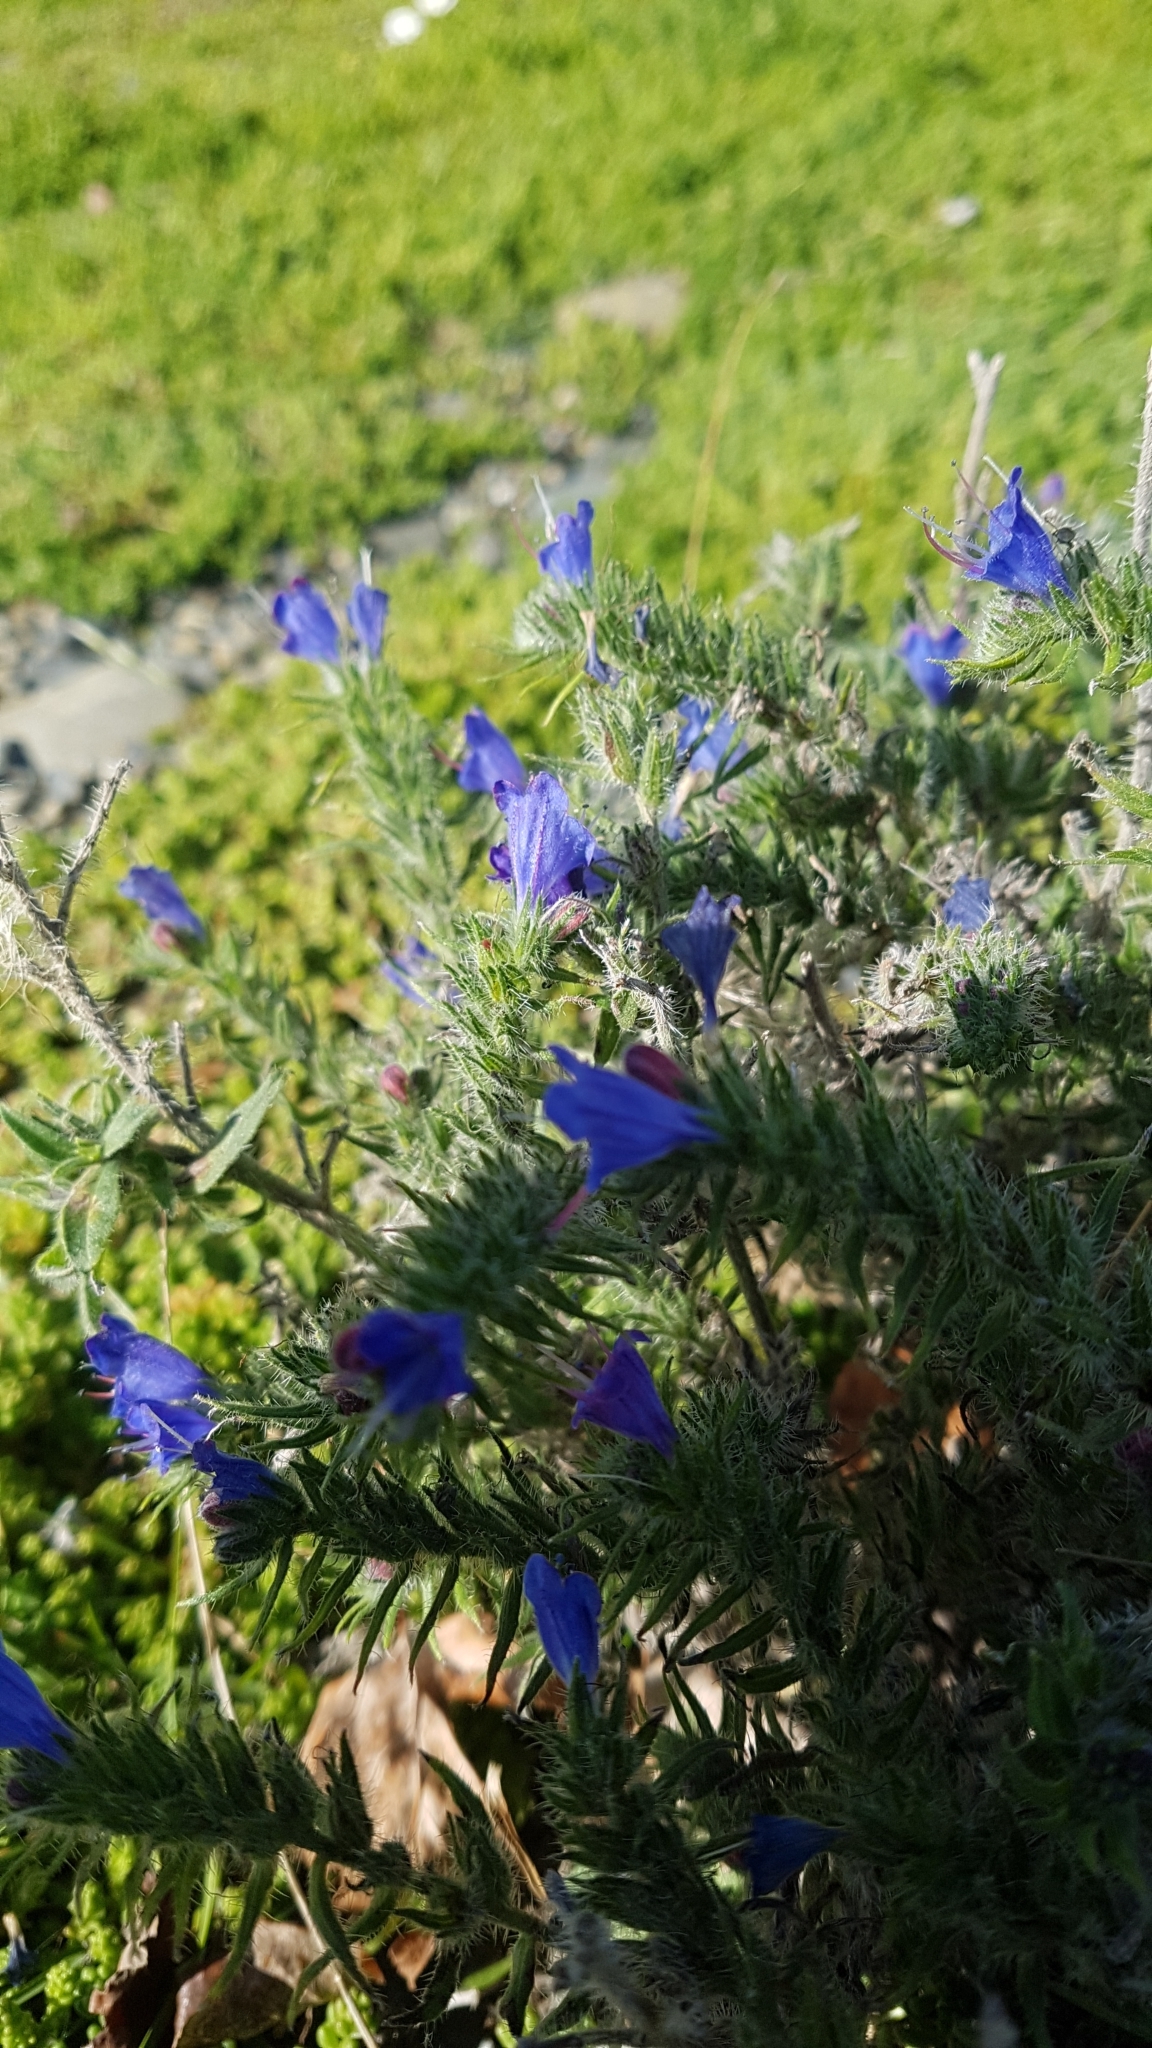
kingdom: Plantae
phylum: Tracheophyta
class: Magnoliopsida
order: Boraginales
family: Boraginaceae
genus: Echium
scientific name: Echium vulgare
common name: Common viper's bugloss
